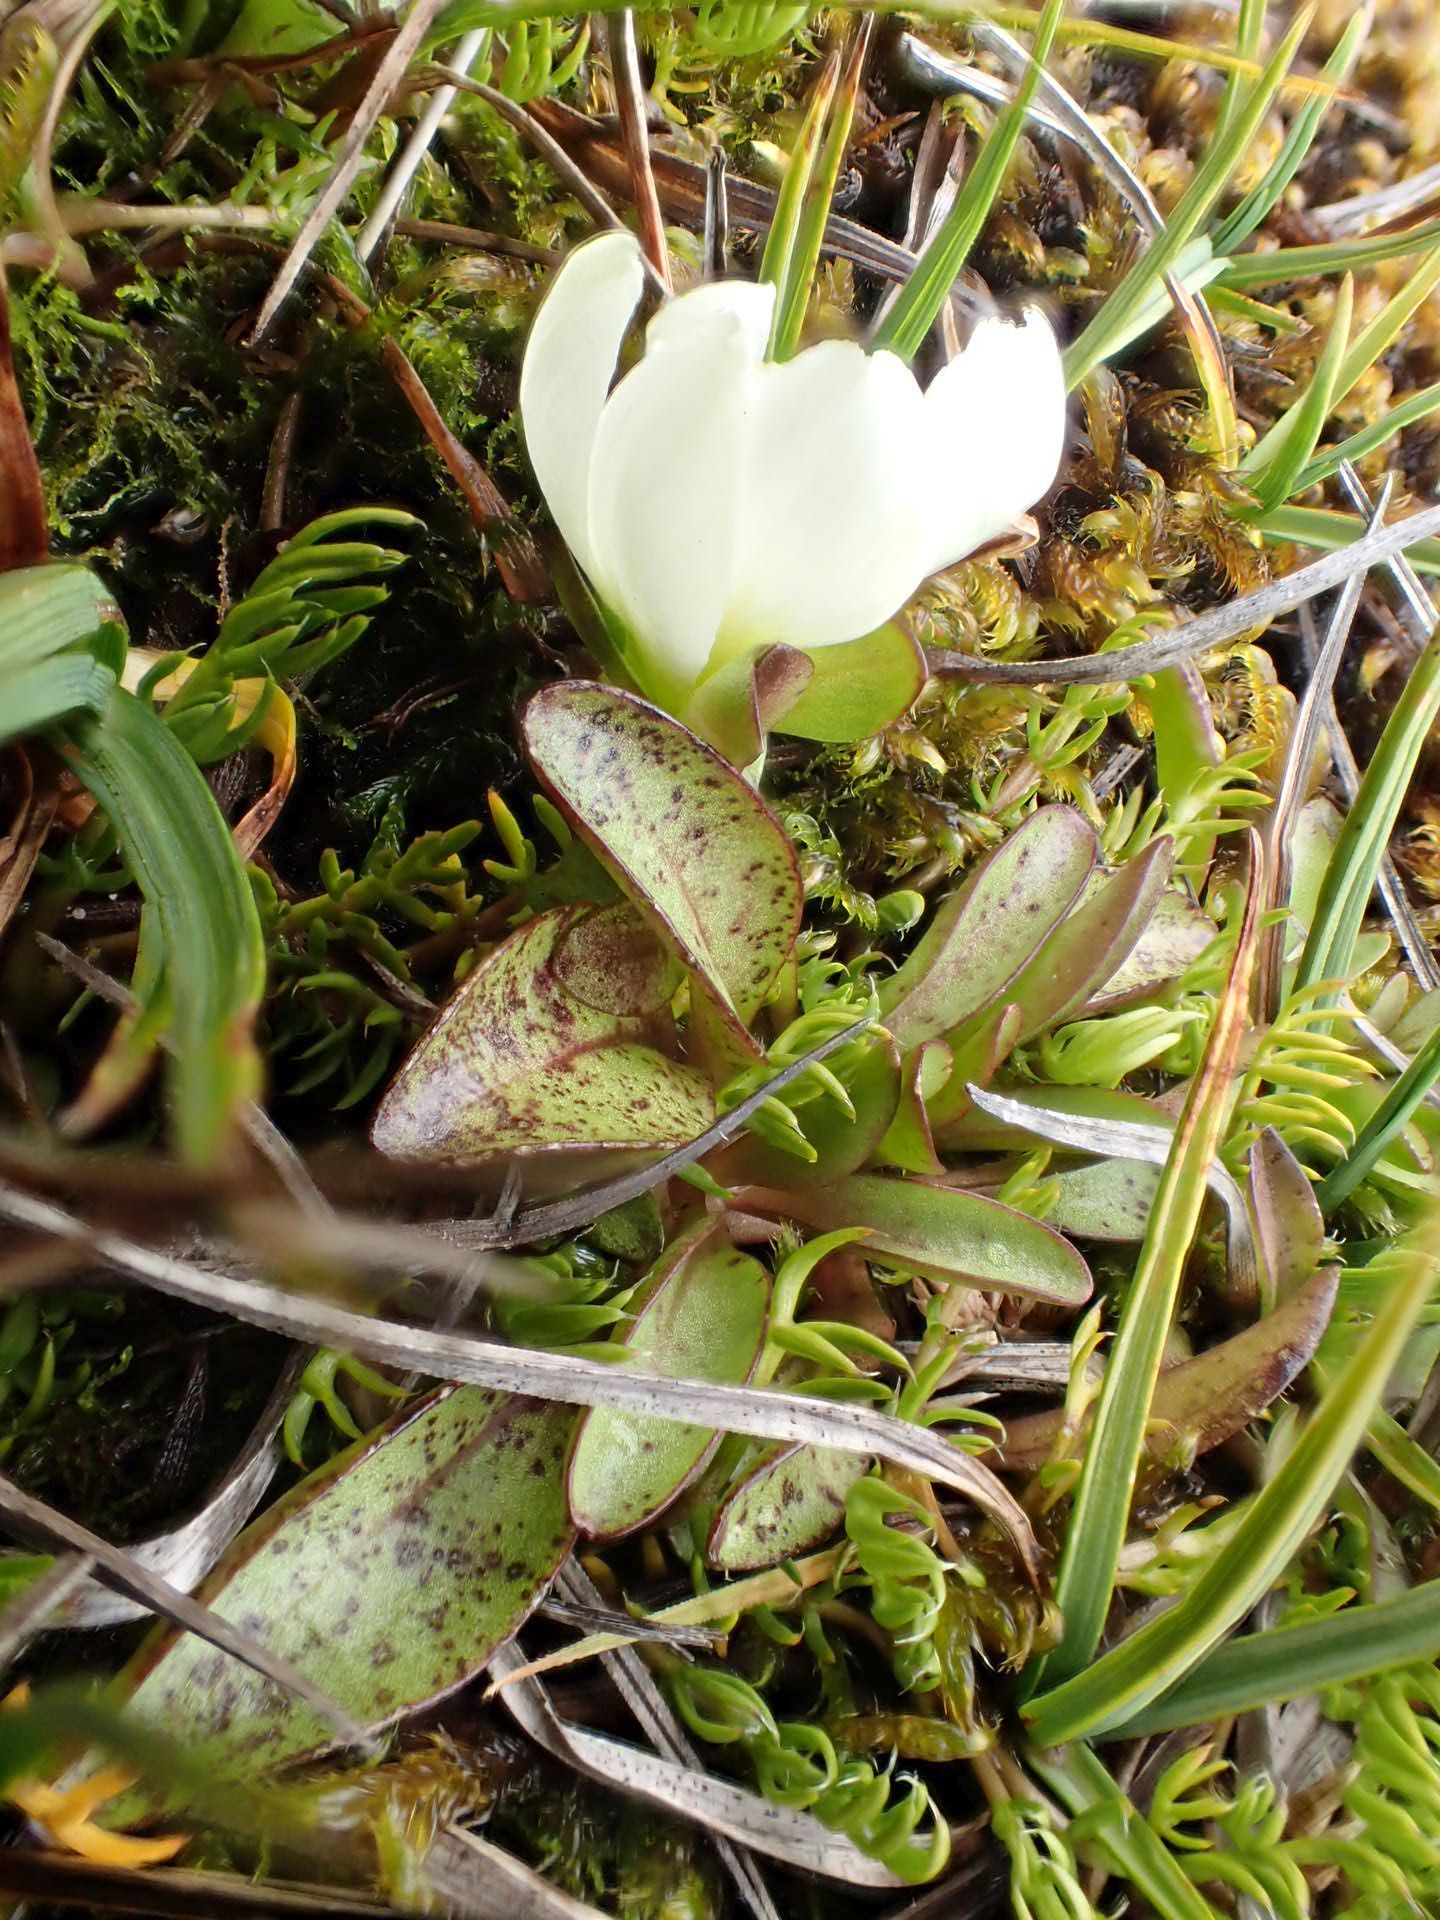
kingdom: Plantae
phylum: Tracheophyta
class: Magnoliopsida
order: Gentianales
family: Gentianaceae
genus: Gentianella
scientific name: Gentianella amabilis
